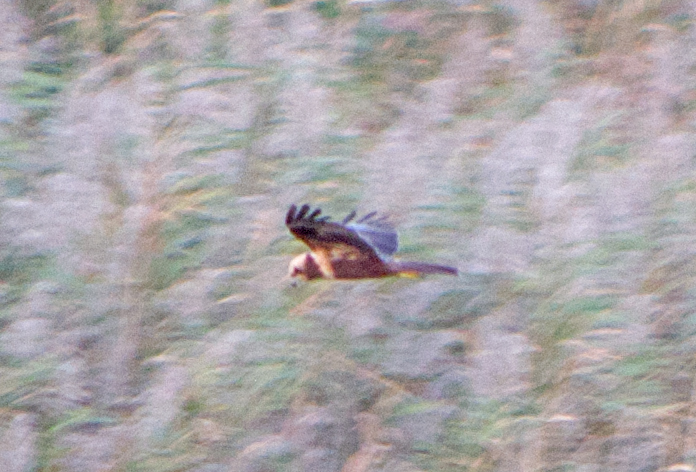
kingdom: Animalia
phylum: Chordata
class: Aves
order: Accipitriformes
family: Accipitridae
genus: Circus
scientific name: Circus aeruginosus
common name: Western marsh harrier
